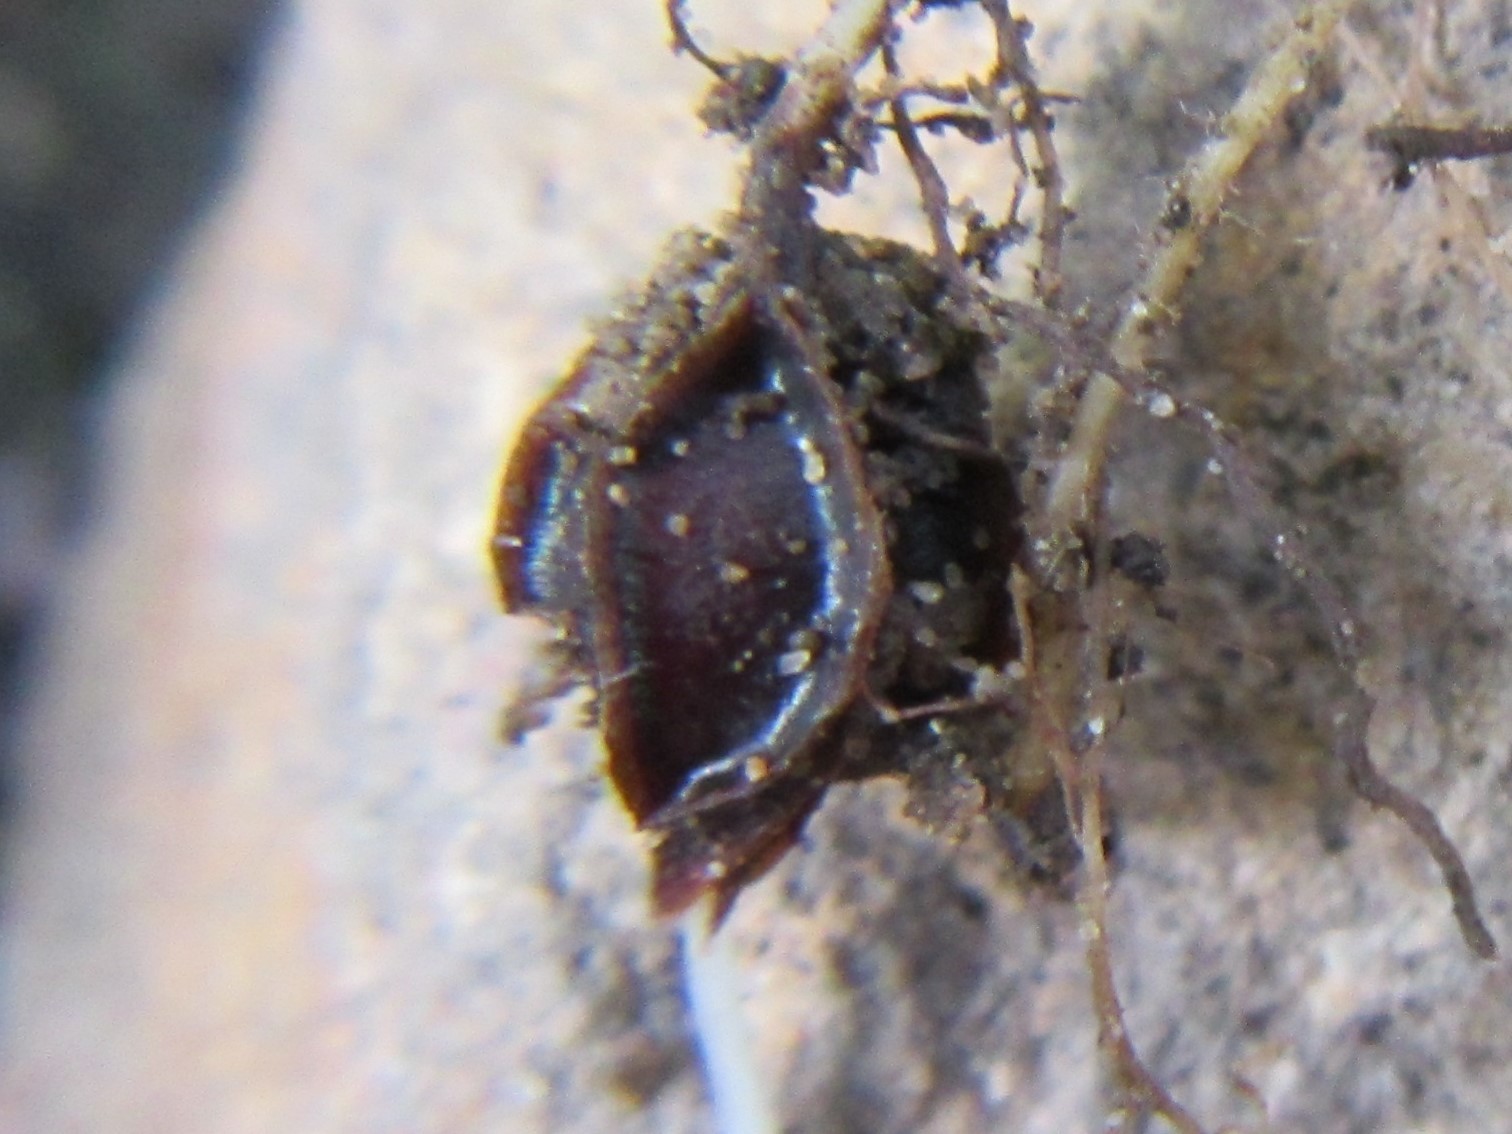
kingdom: Plantae
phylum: Tracheophyta
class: Magnoliopsida
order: Oxalidales
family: Oxalidaceae
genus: Oxalis
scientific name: Oxalis obtusa
